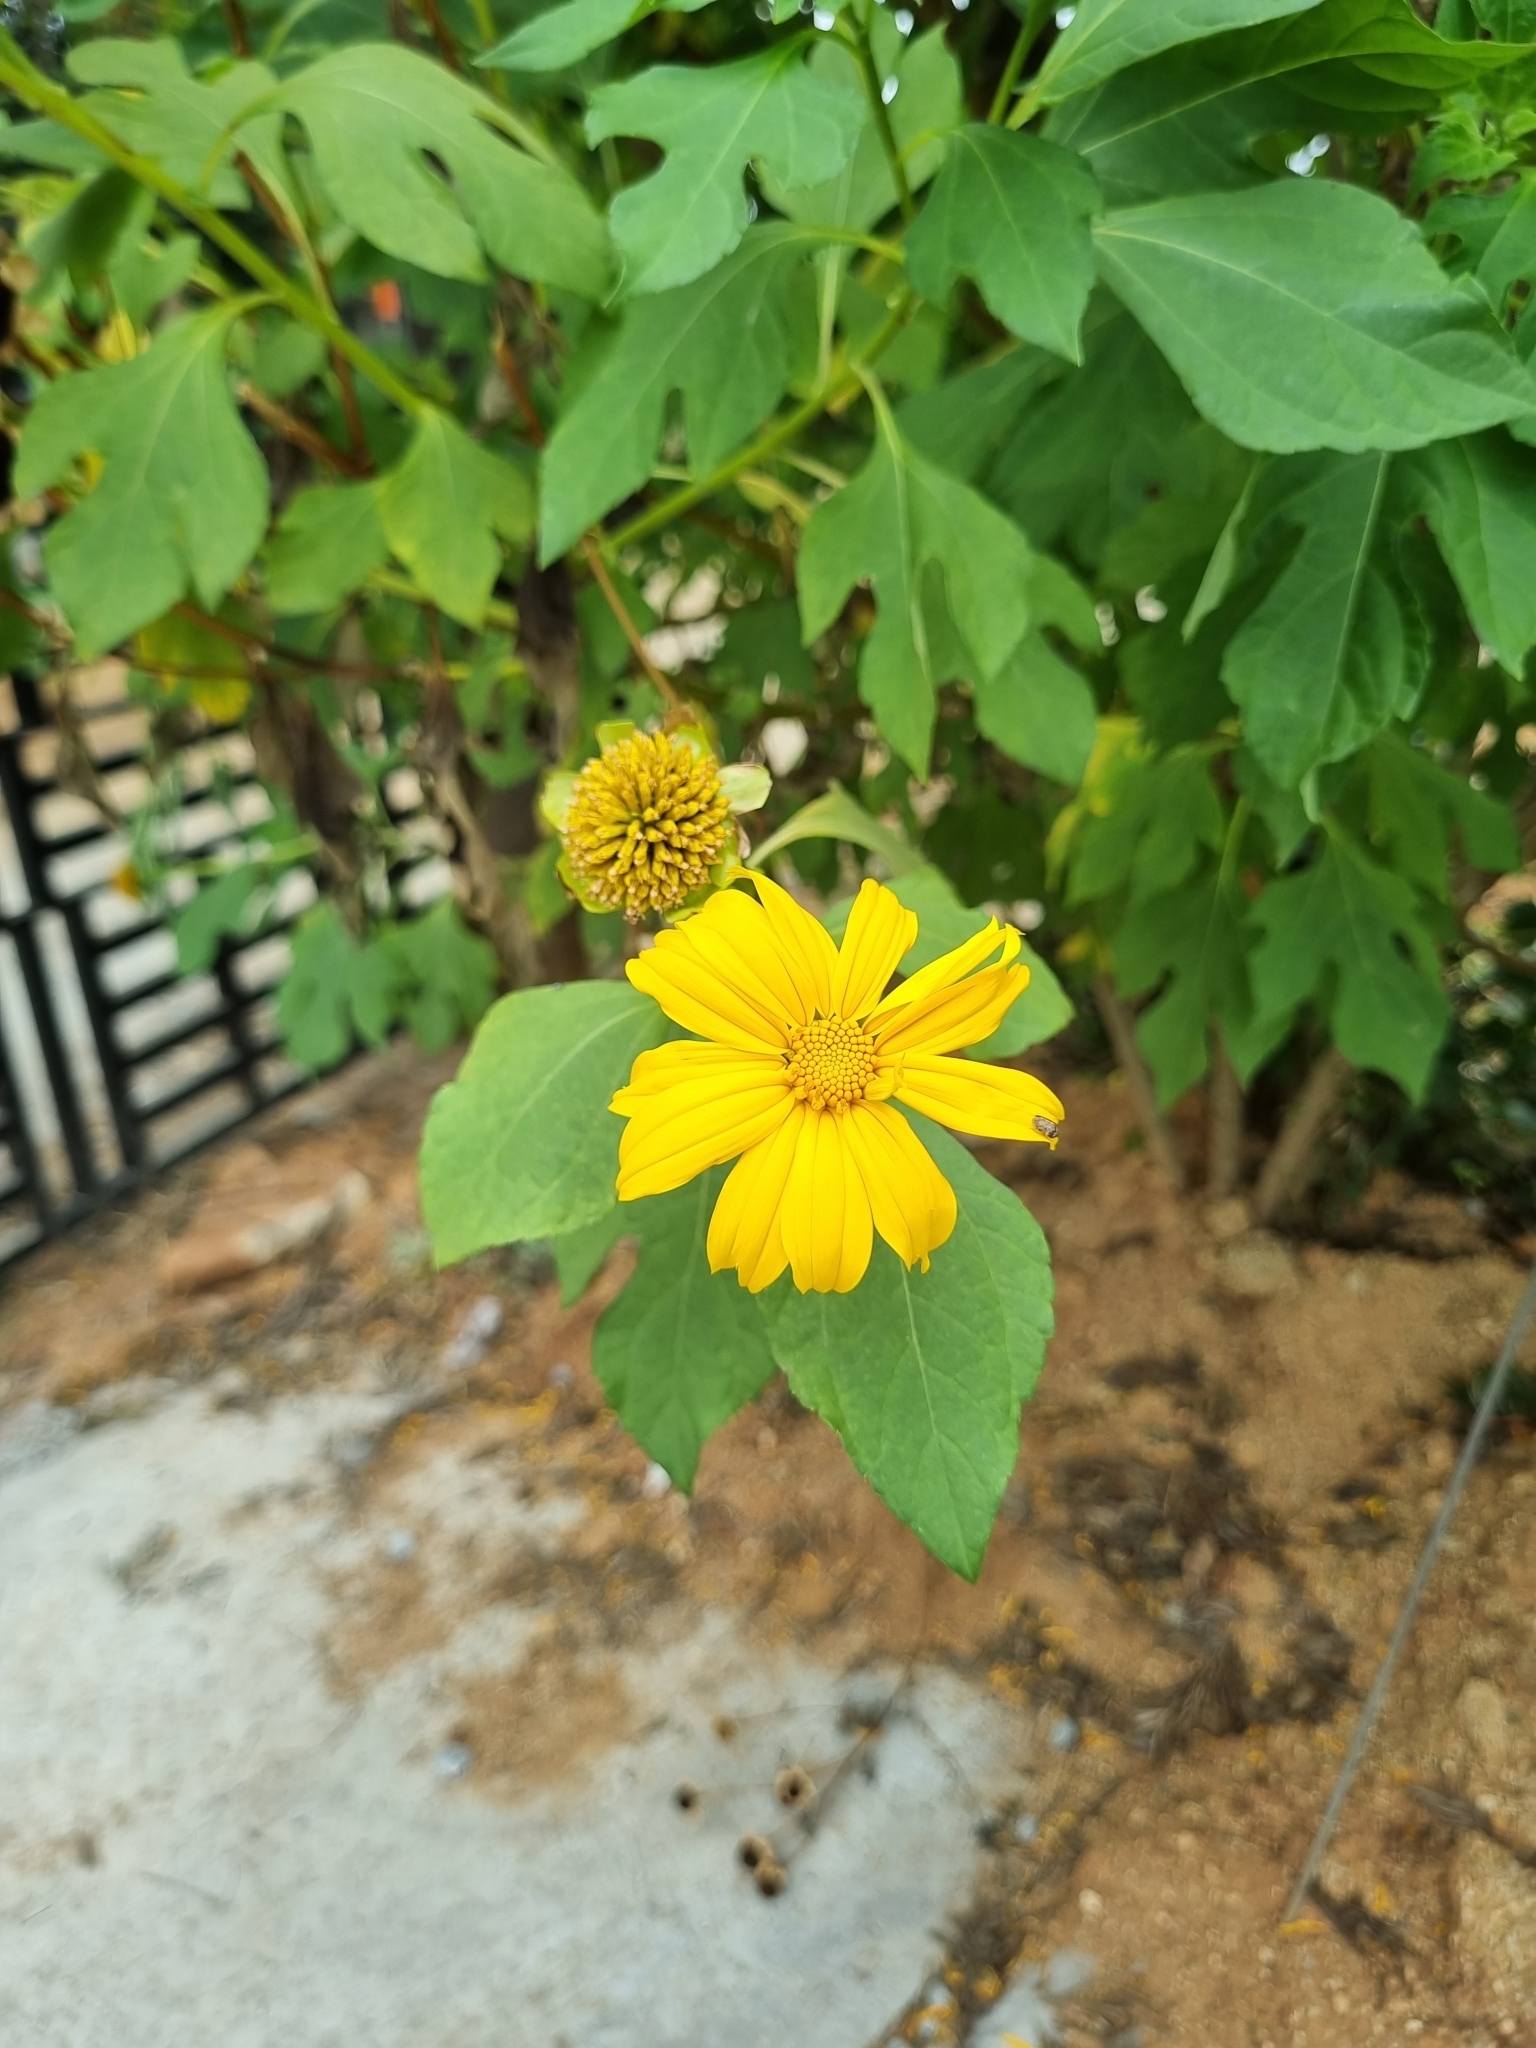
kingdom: Plantae
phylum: Tracheophyta
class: Magnoliopsida
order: Asterales
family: Asteraceae
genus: Tithonia
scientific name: Tithonia diversifolia
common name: Tree marigold
